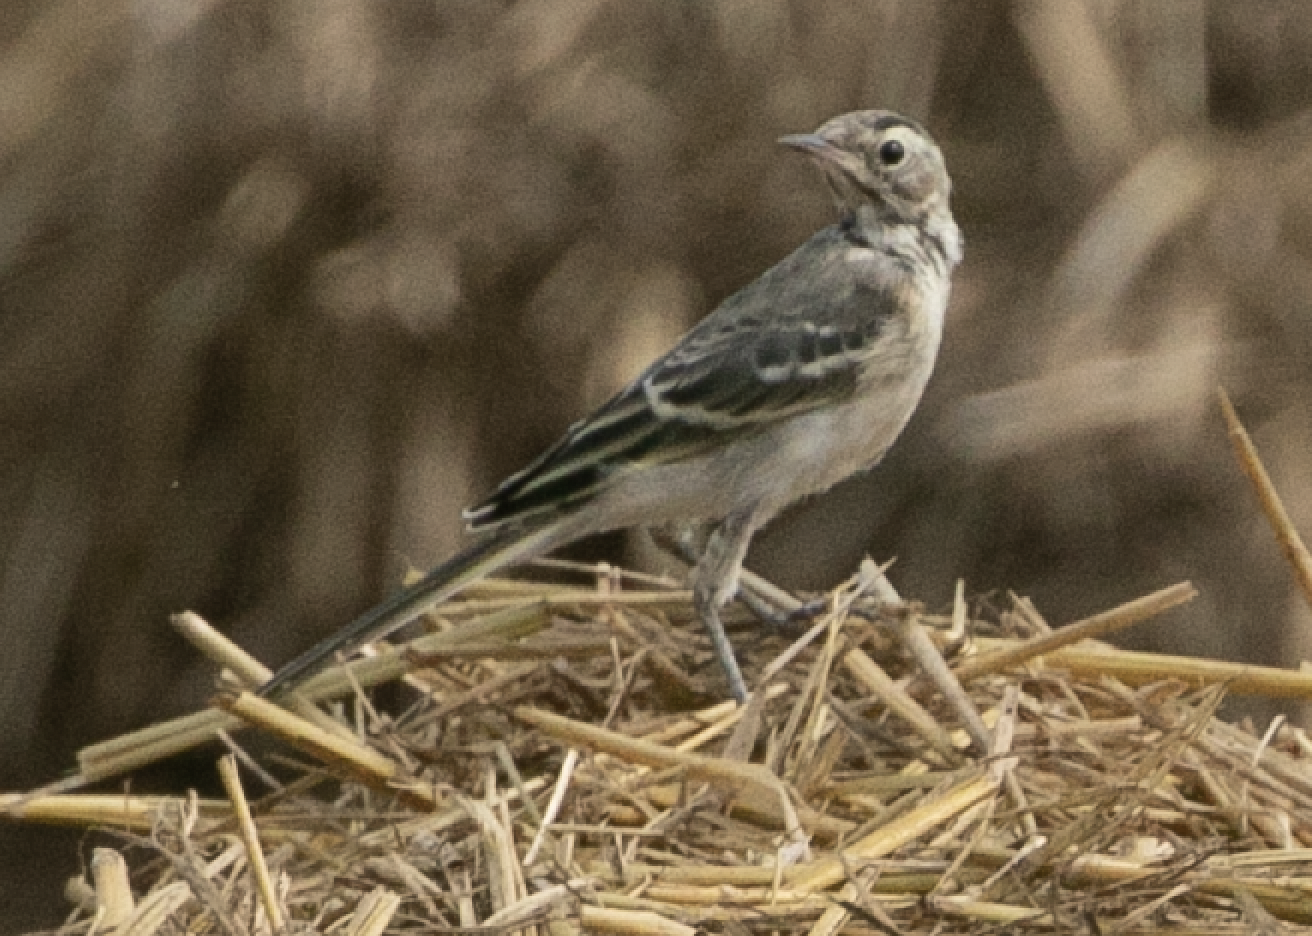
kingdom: Animalia
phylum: Chordata
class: Aves
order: Passeriformes
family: Motacillidae
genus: Motacilla
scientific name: Motacilla flava
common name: Western yellow wagtail
